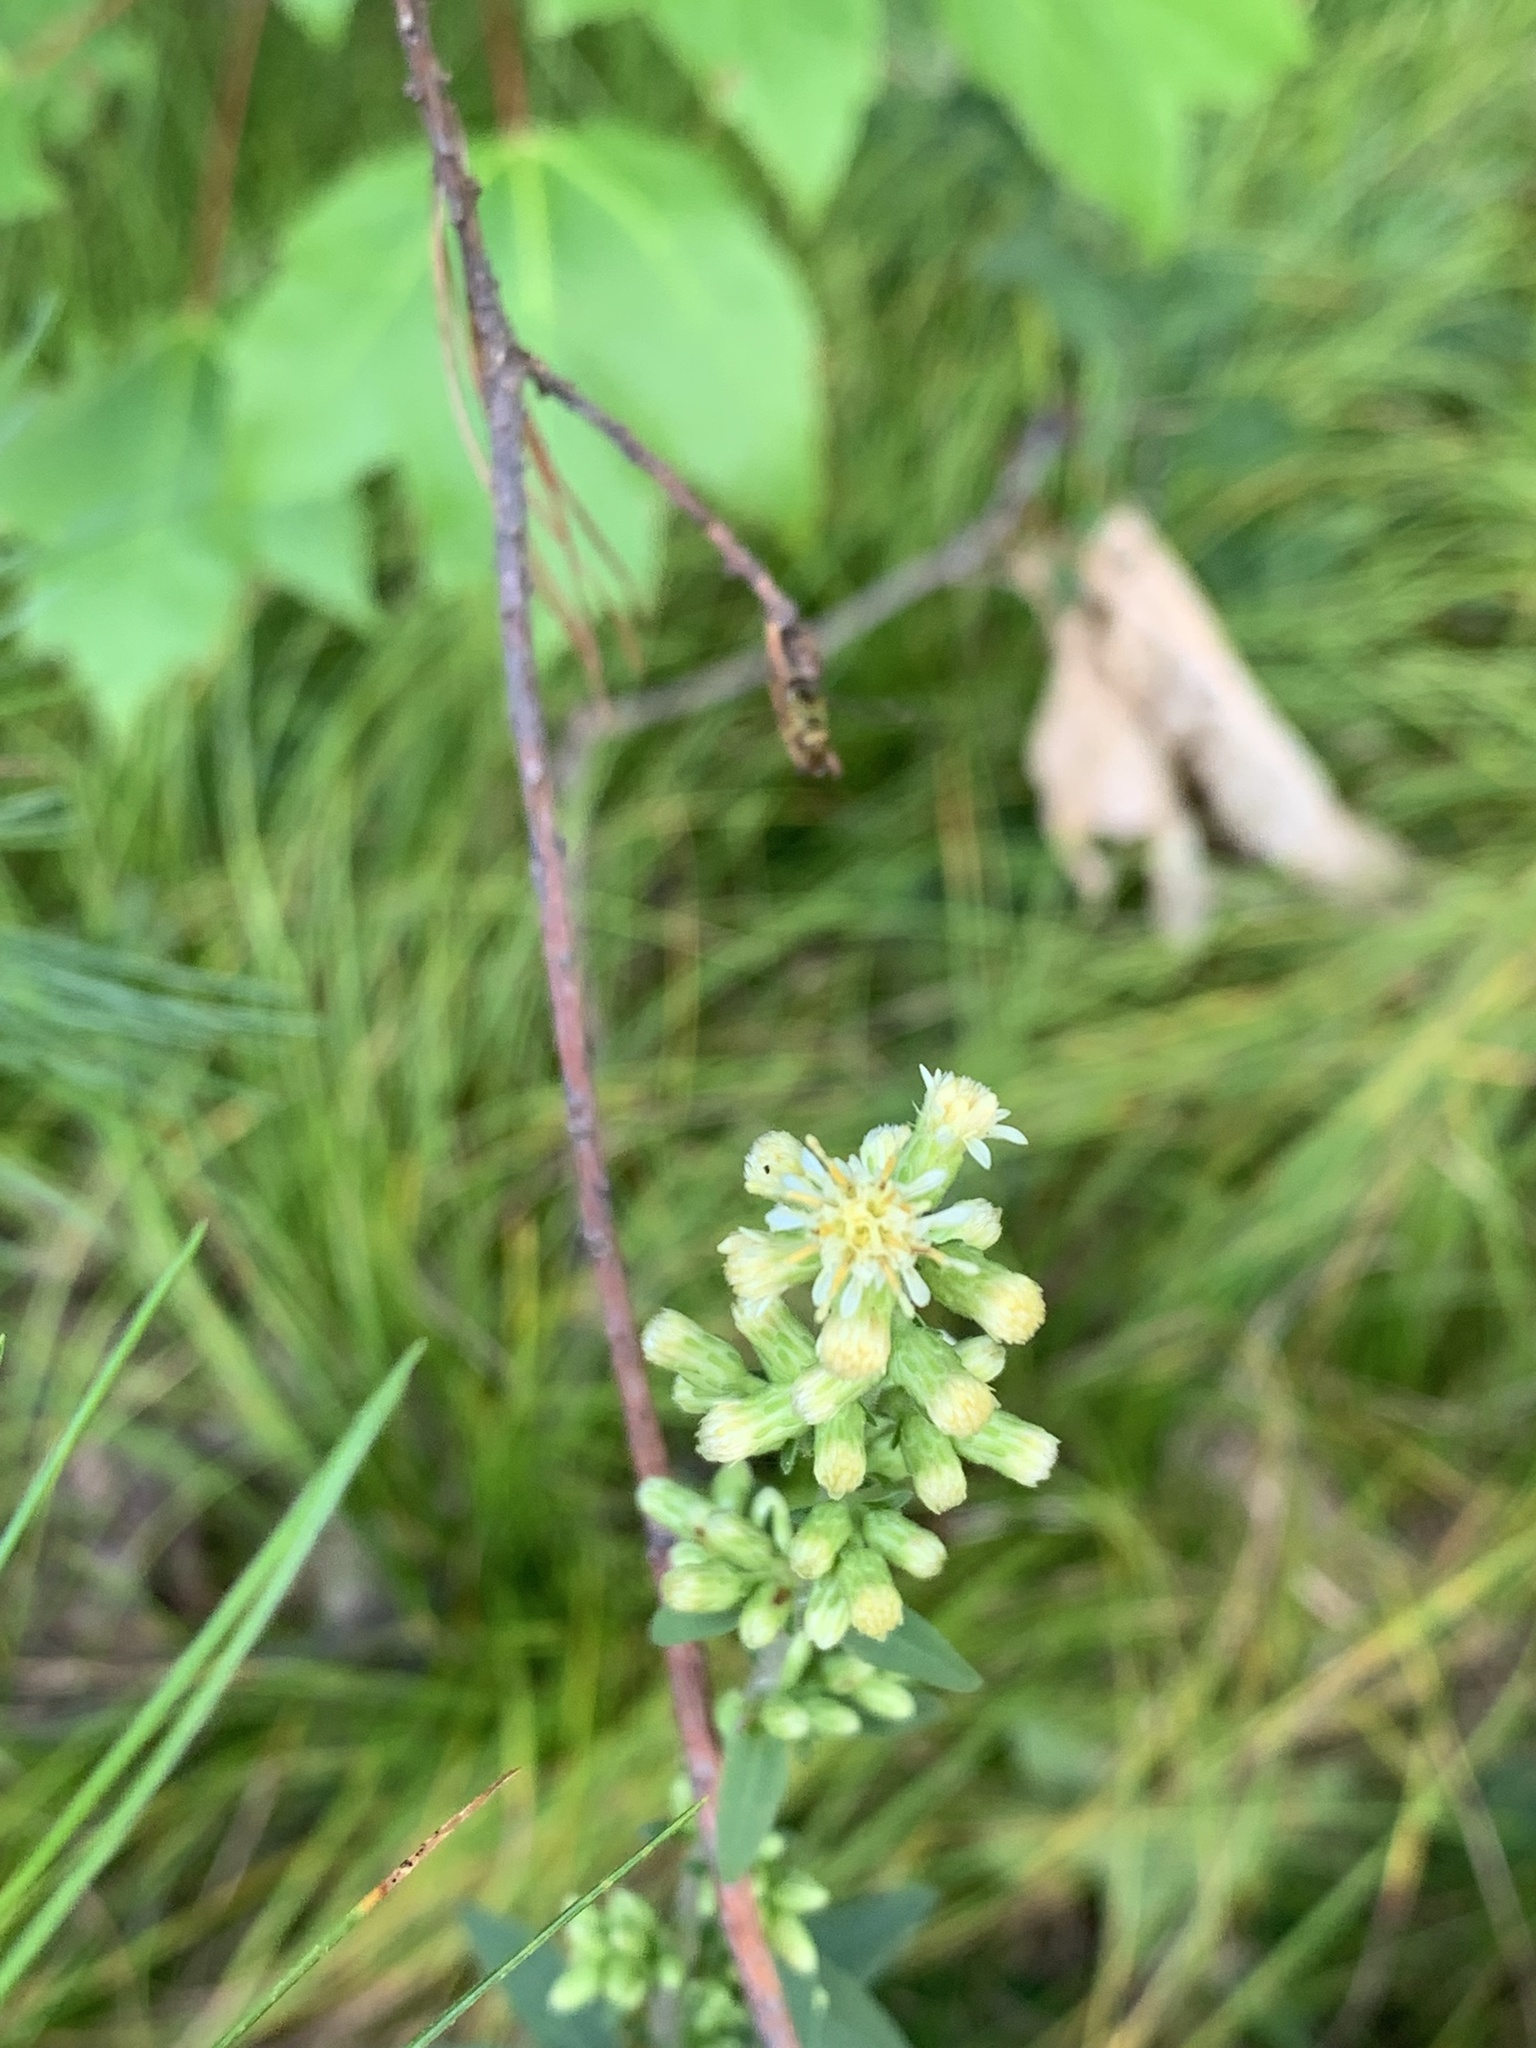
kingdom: Plantae
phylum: Tracheophyta
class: Magnoliopsida
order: Asterales
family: Asteraceae
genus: Solidago
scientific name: Solidago bicolor
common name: Silverrod
